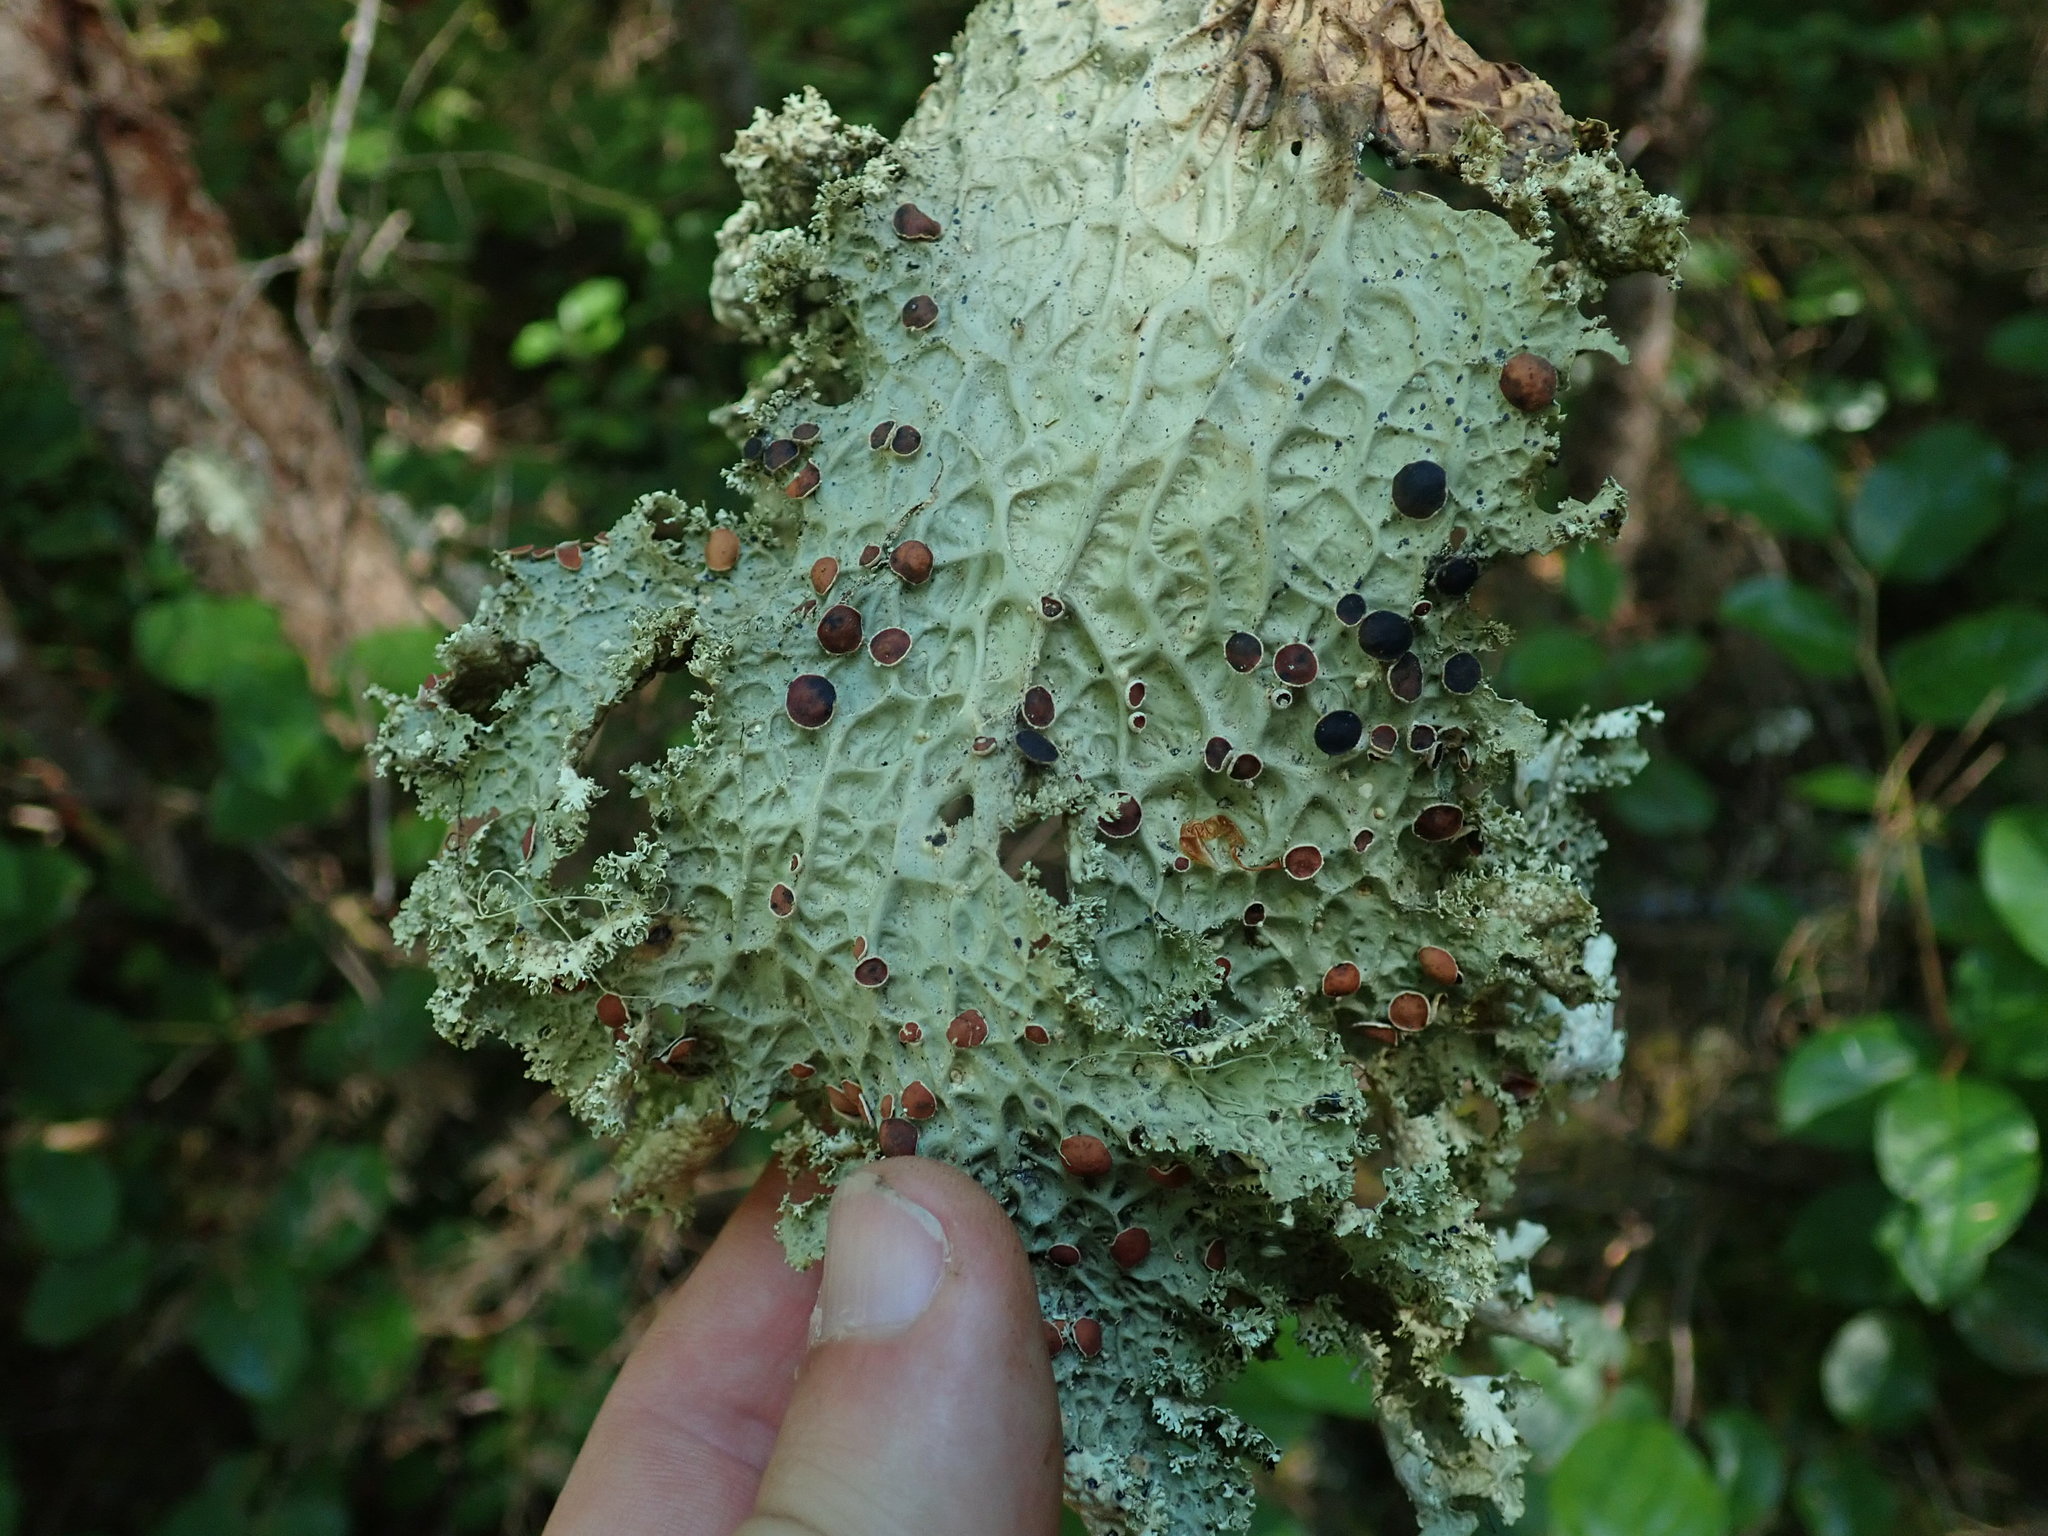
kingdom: Fungi
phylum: Ascomycota
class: Lecanoromycetes
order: Peltigerales
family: Lobariaceae
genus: Lobaria
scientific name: Lobaria oregana
